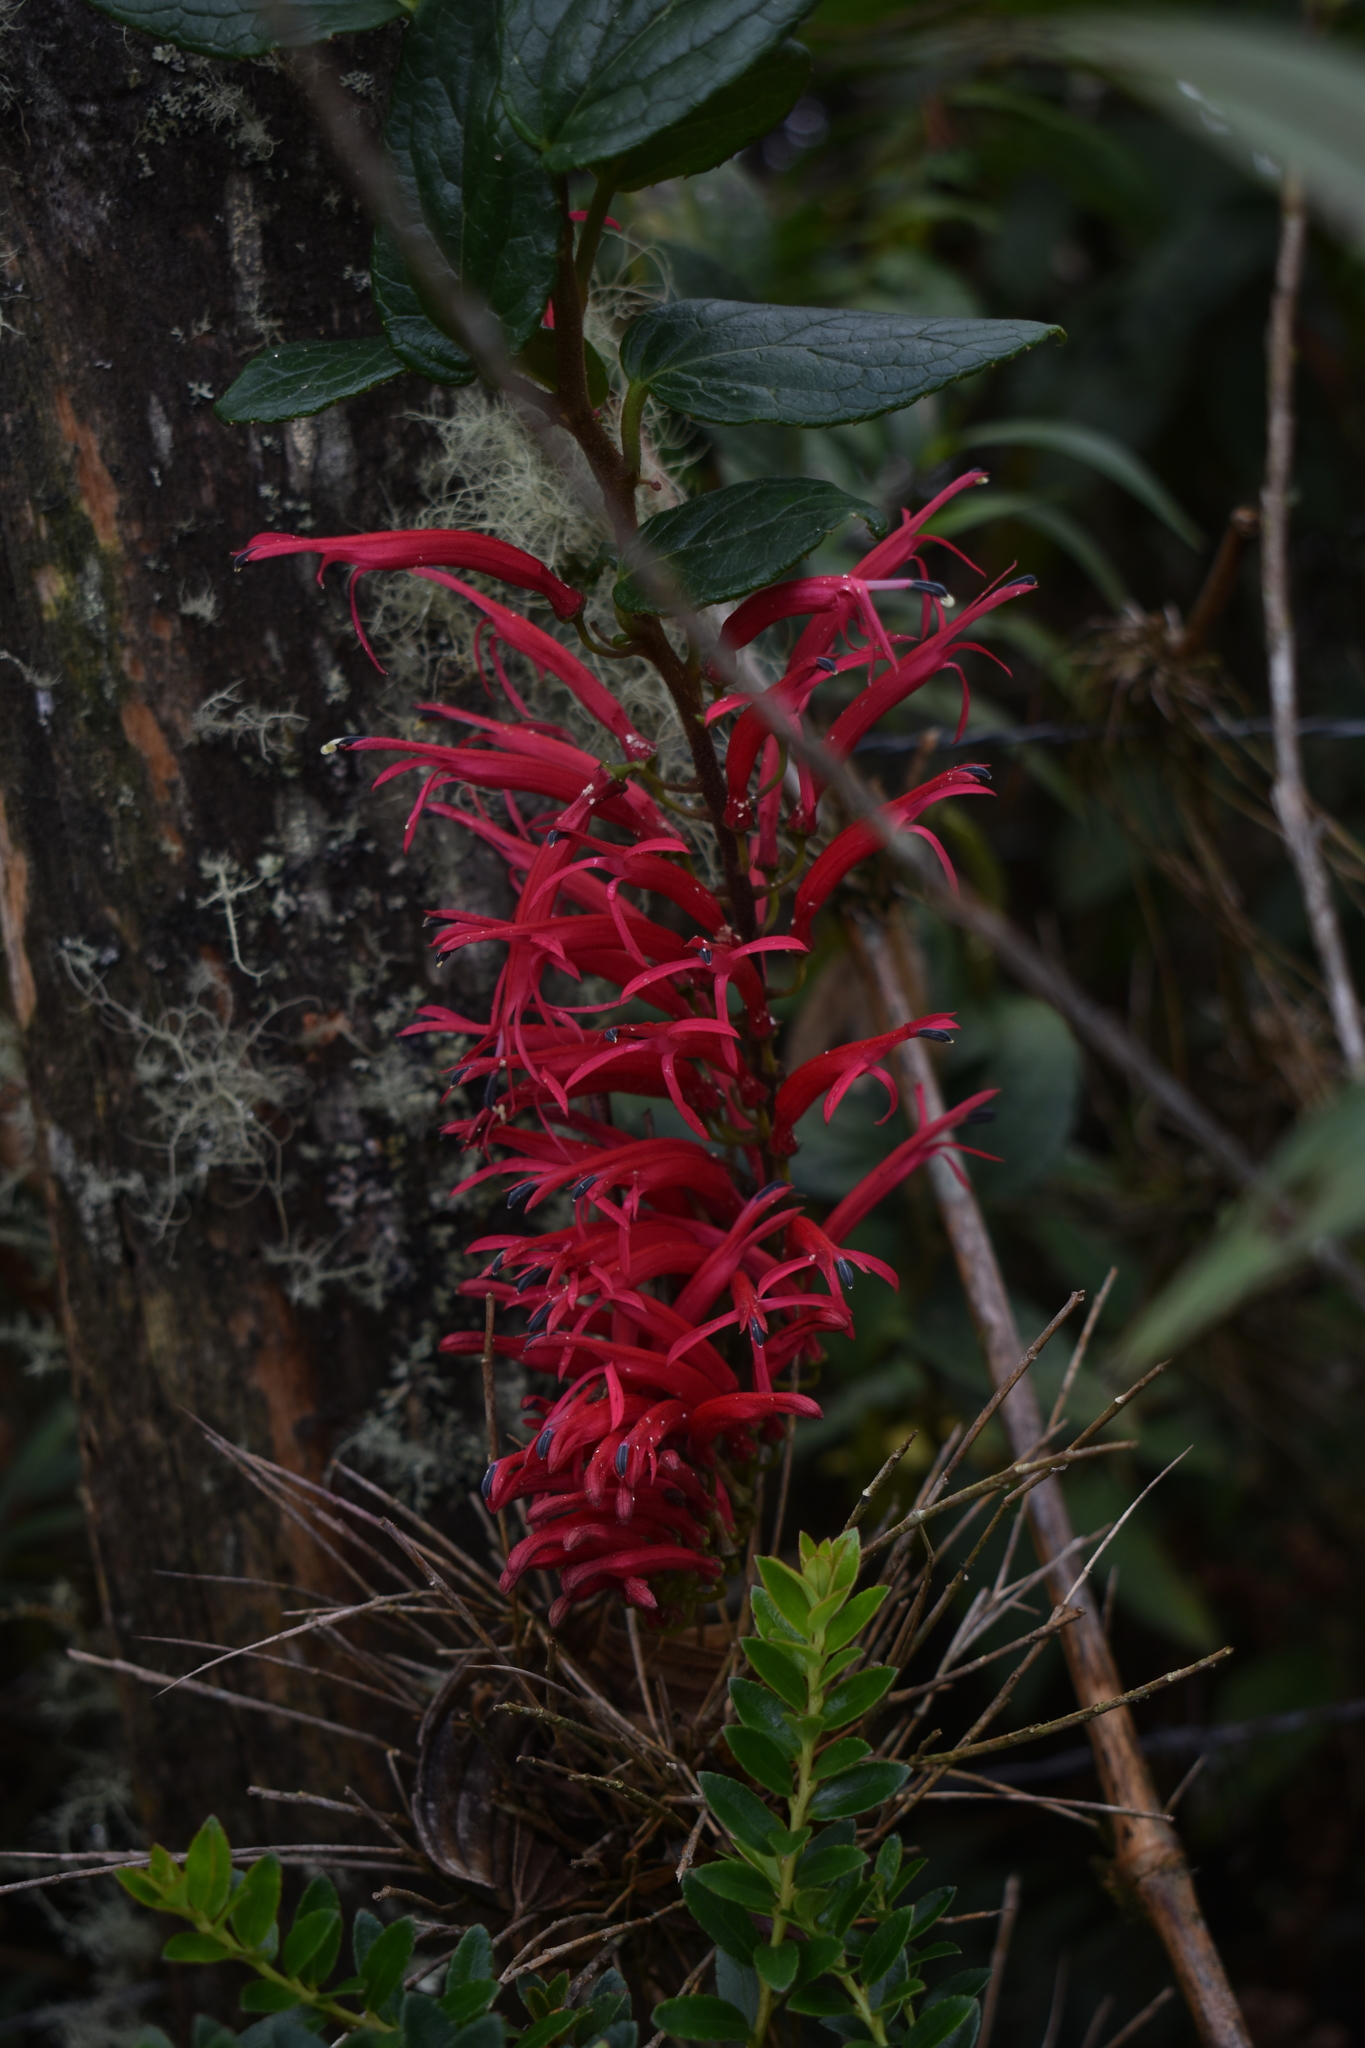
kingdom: Plantae
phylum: Tracheophyta
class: Magnoliopsida
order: Asterales
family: Campanulaceae
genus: Siphocampylus
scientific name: Siphocampylus retrorsus
